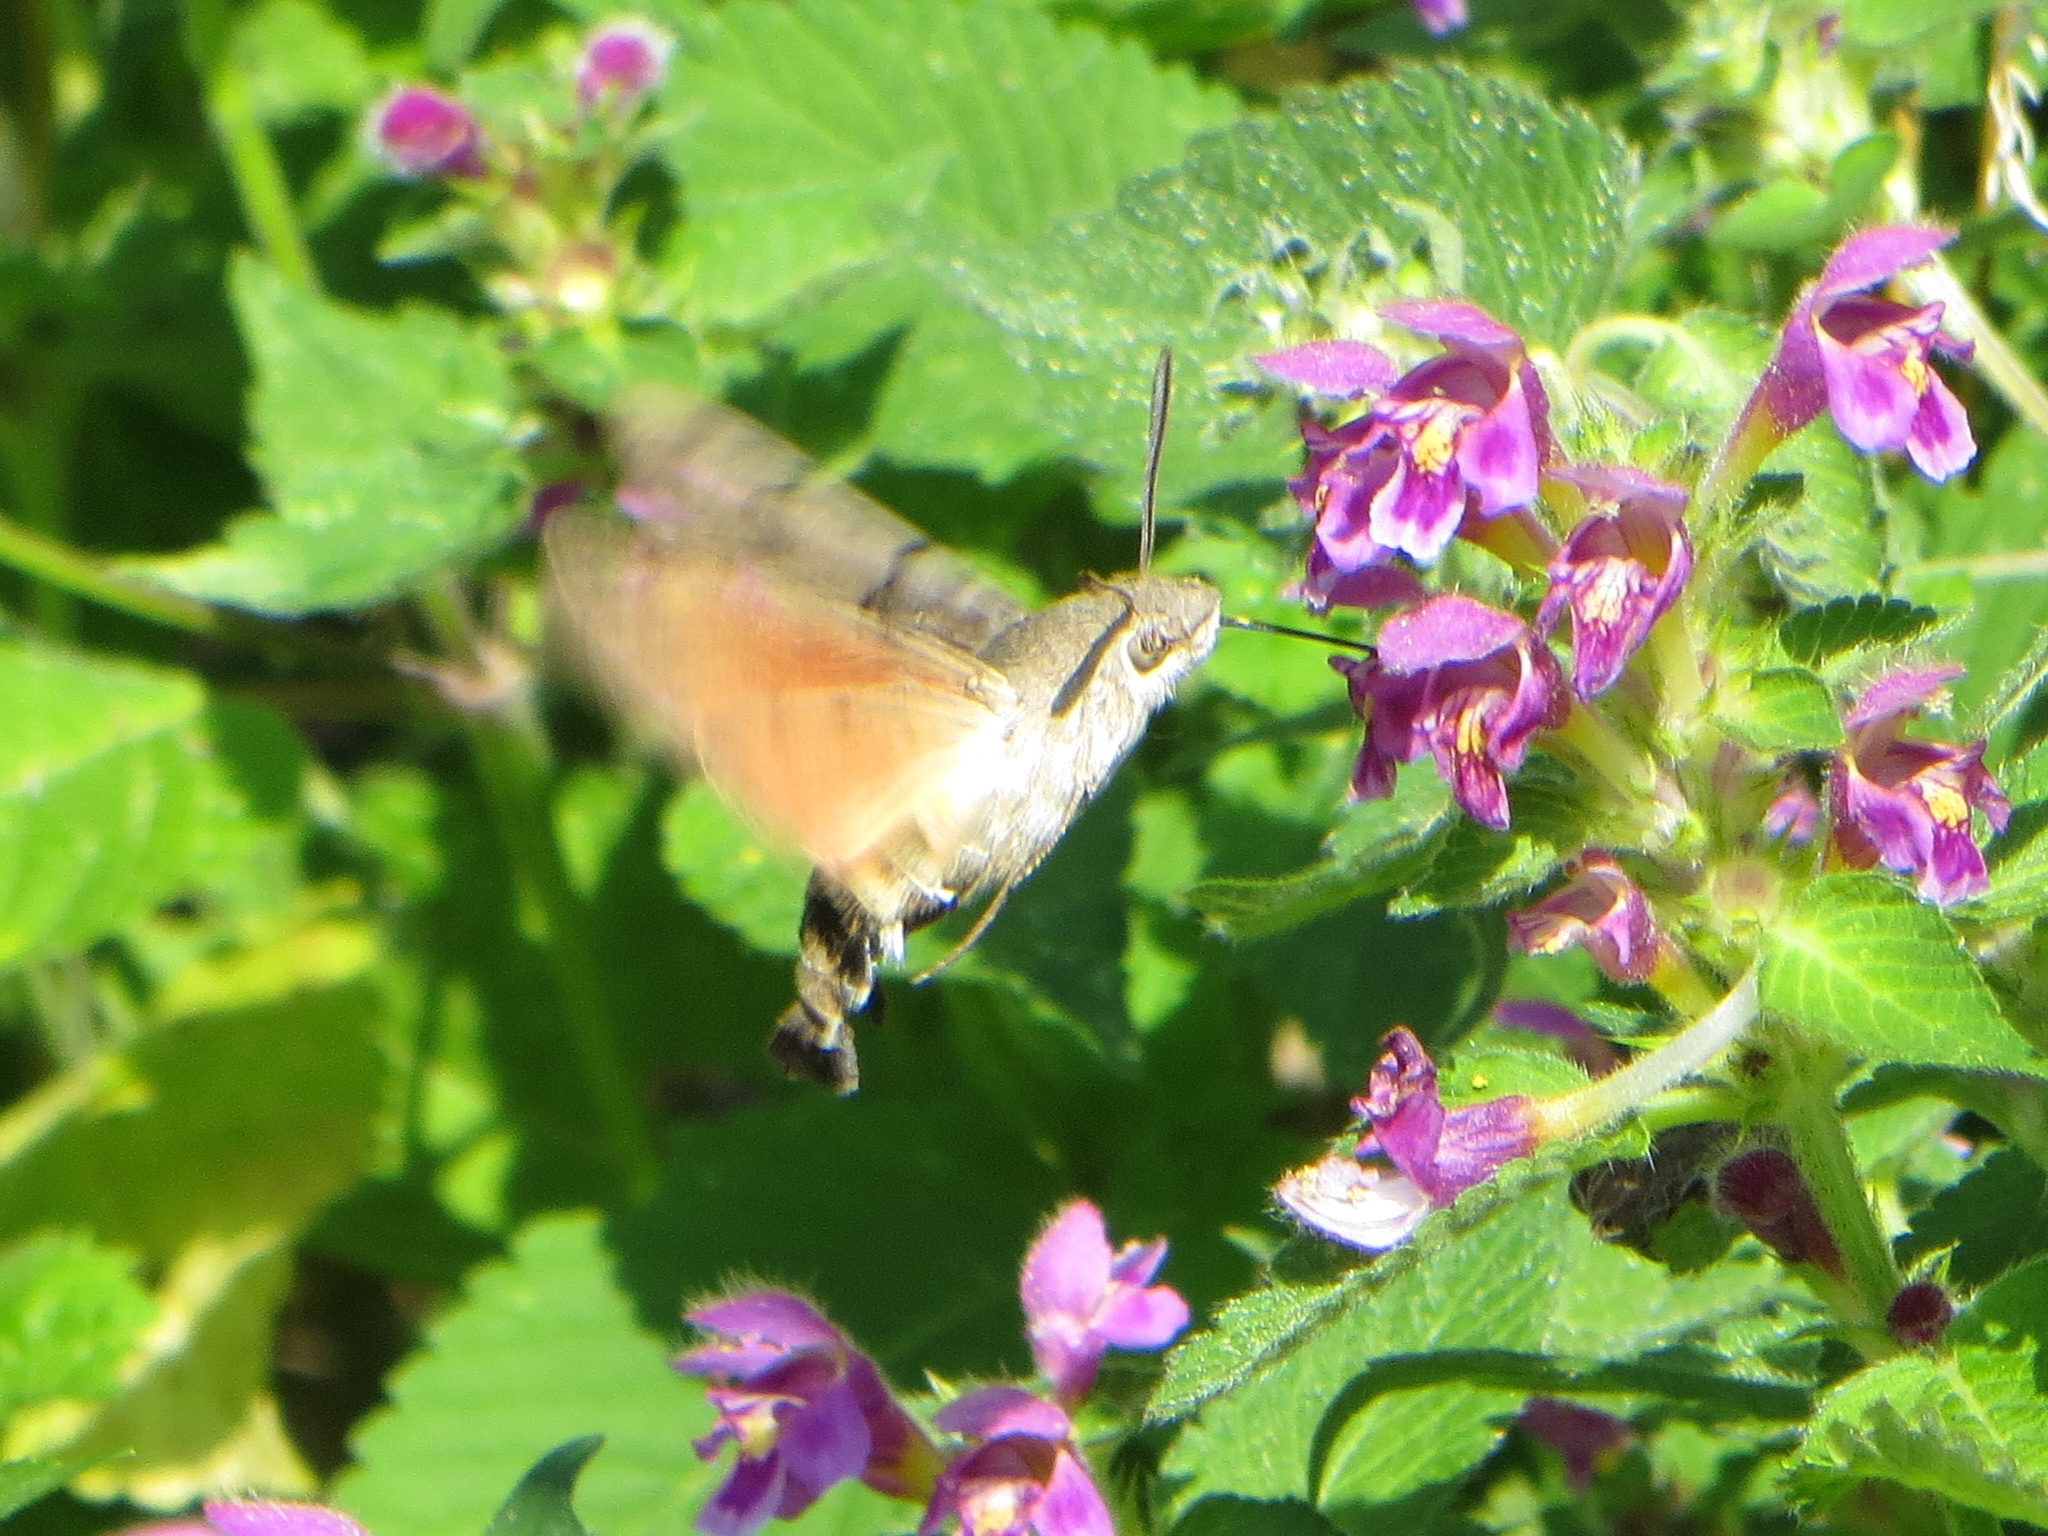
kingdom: Animalia
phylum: Arthropoda
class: Insecta
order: Lepidoptera
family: Sphingidae
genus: Macroglossum
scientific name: Macroglossum stellatarum
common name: Humming-bird hawk-moth
